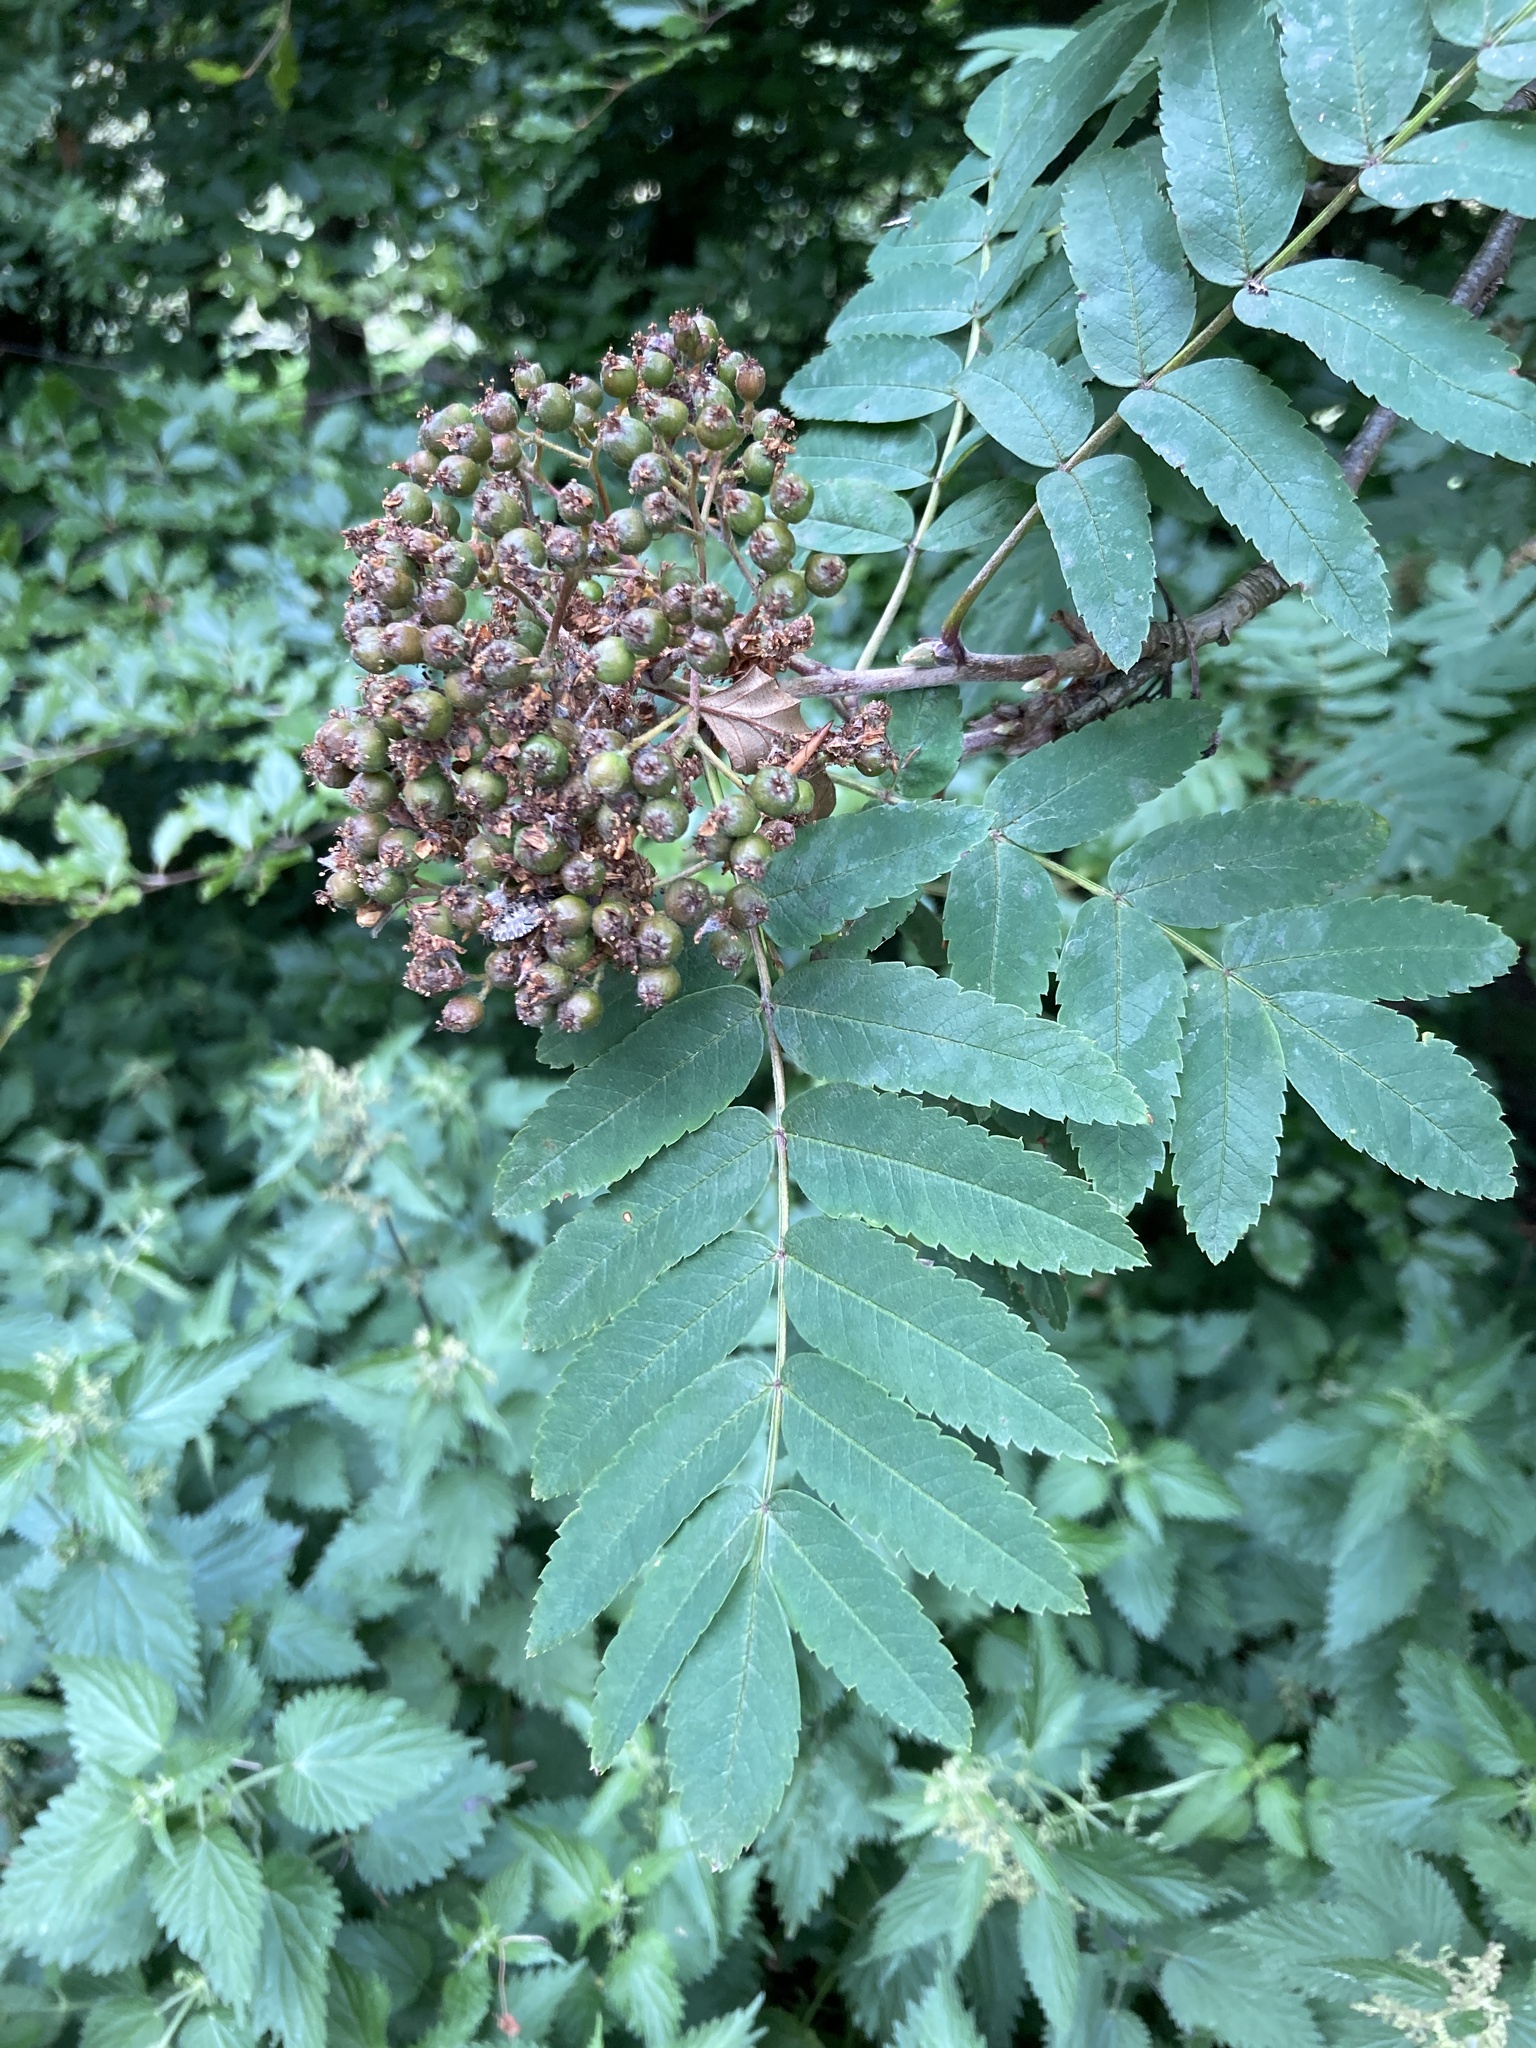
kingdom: Plantae
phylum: Tracheophyta
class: Magnoliopsida
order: Rosales
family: Rosaceae
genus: Sorbus
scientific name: Sorbus aucuparia
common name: Rowan
